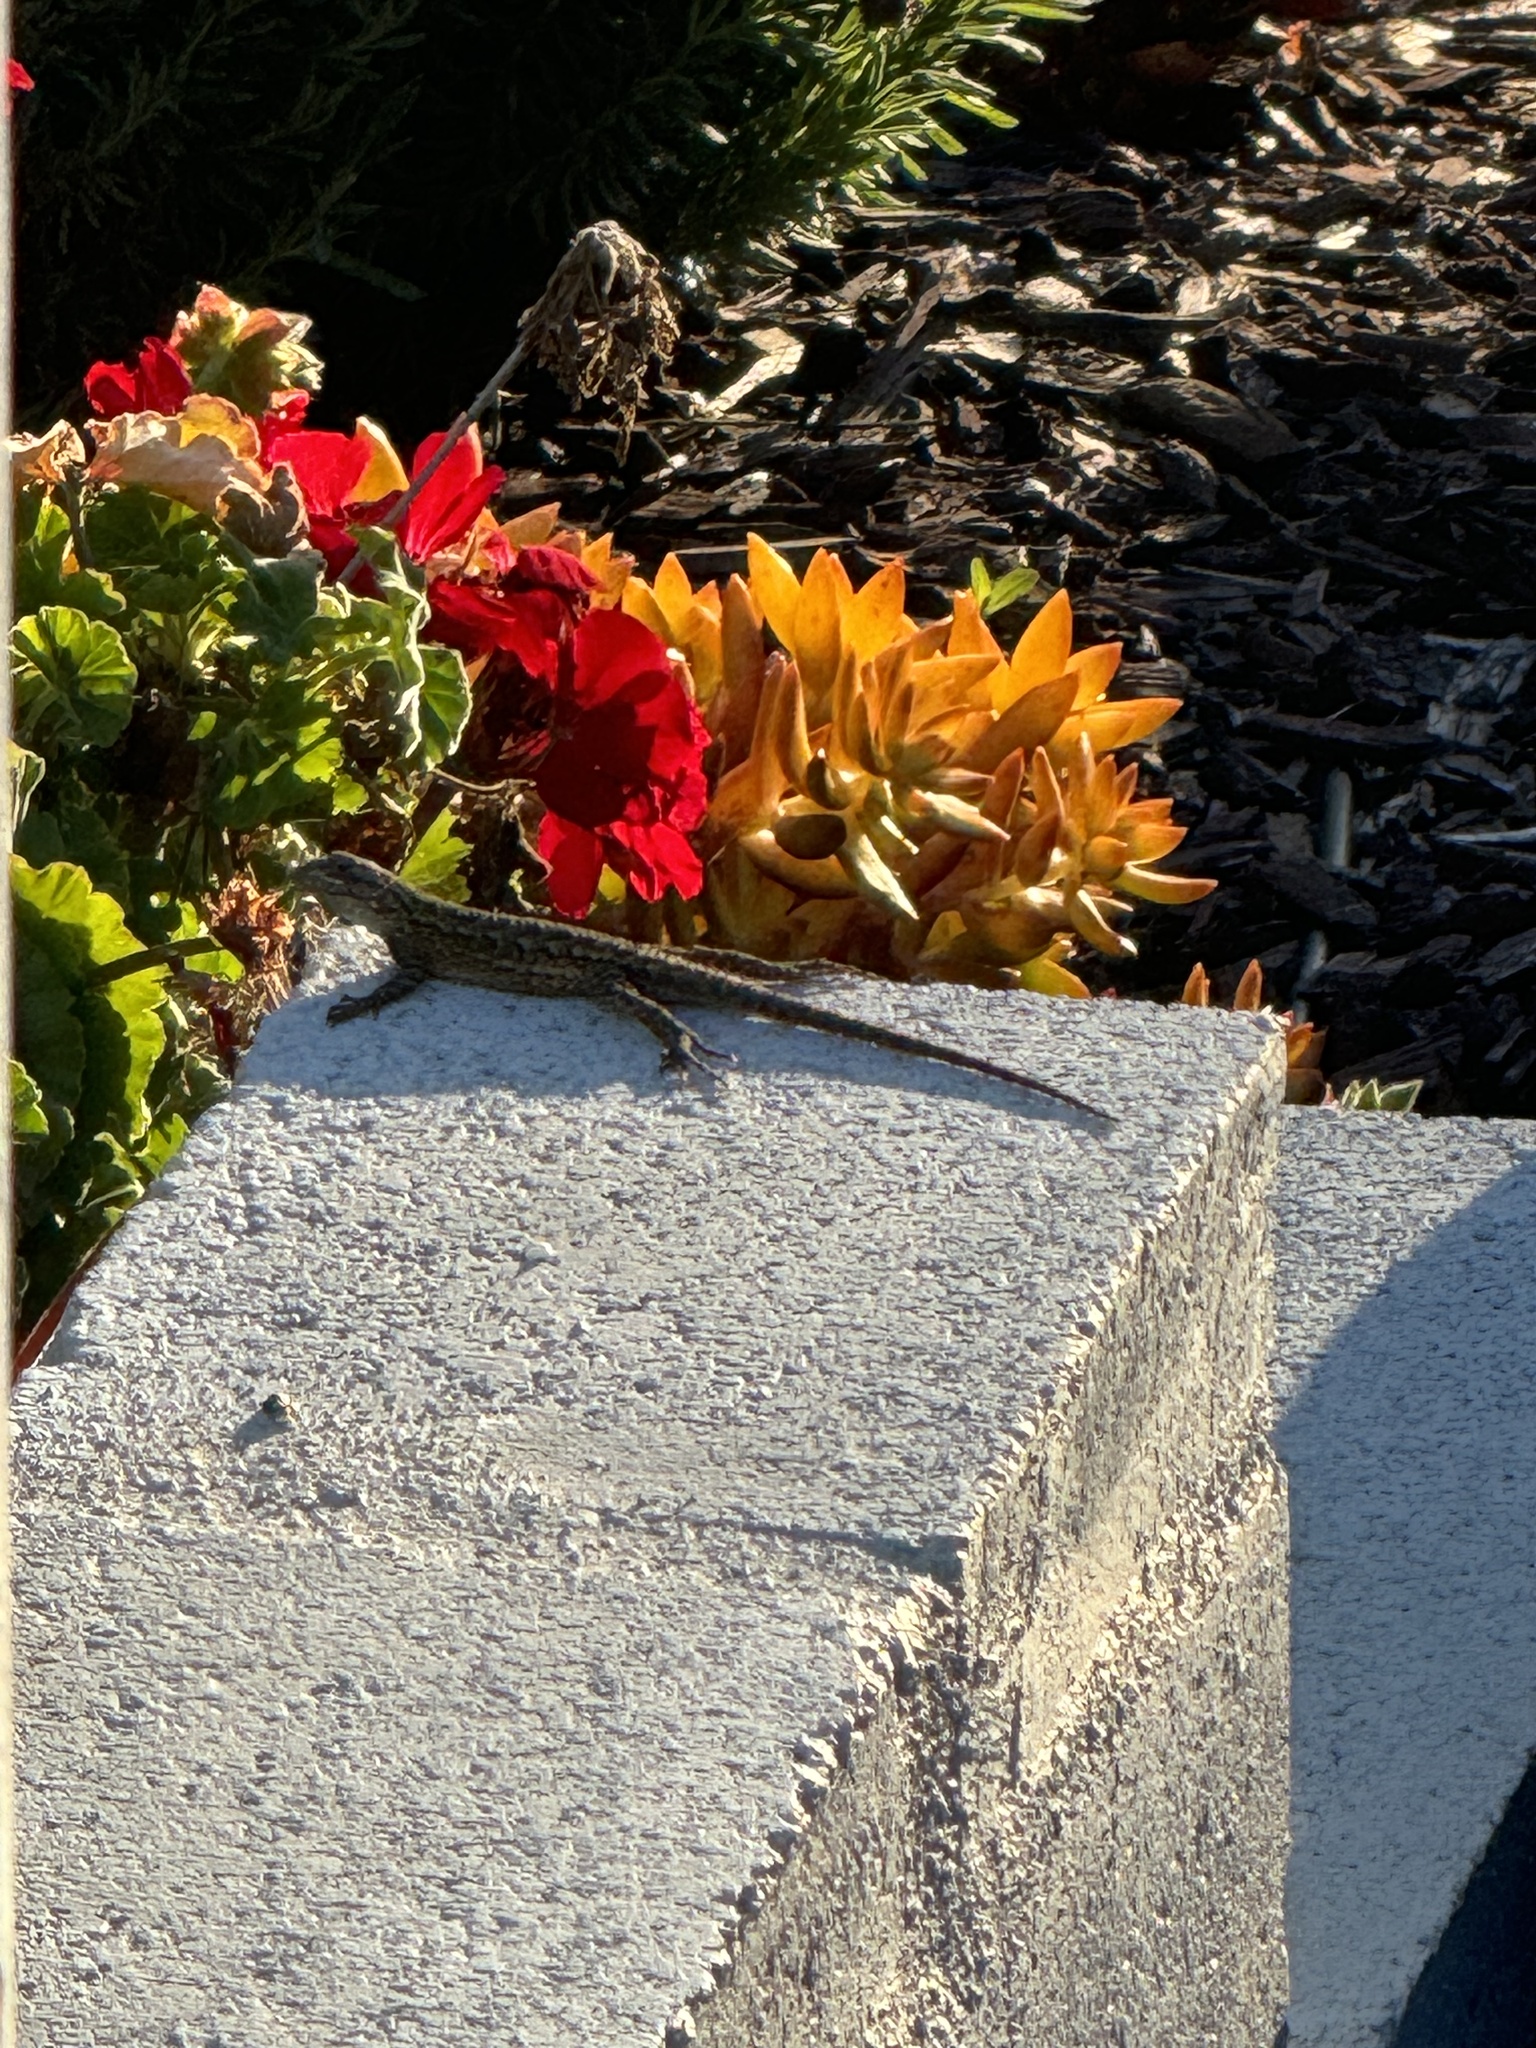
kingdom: Animalia
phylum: Chordata
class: Squamata
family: Phrynosomatidae
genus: Sceloporus
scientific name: Sceloporus occidentalis
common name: Western fence lizard
